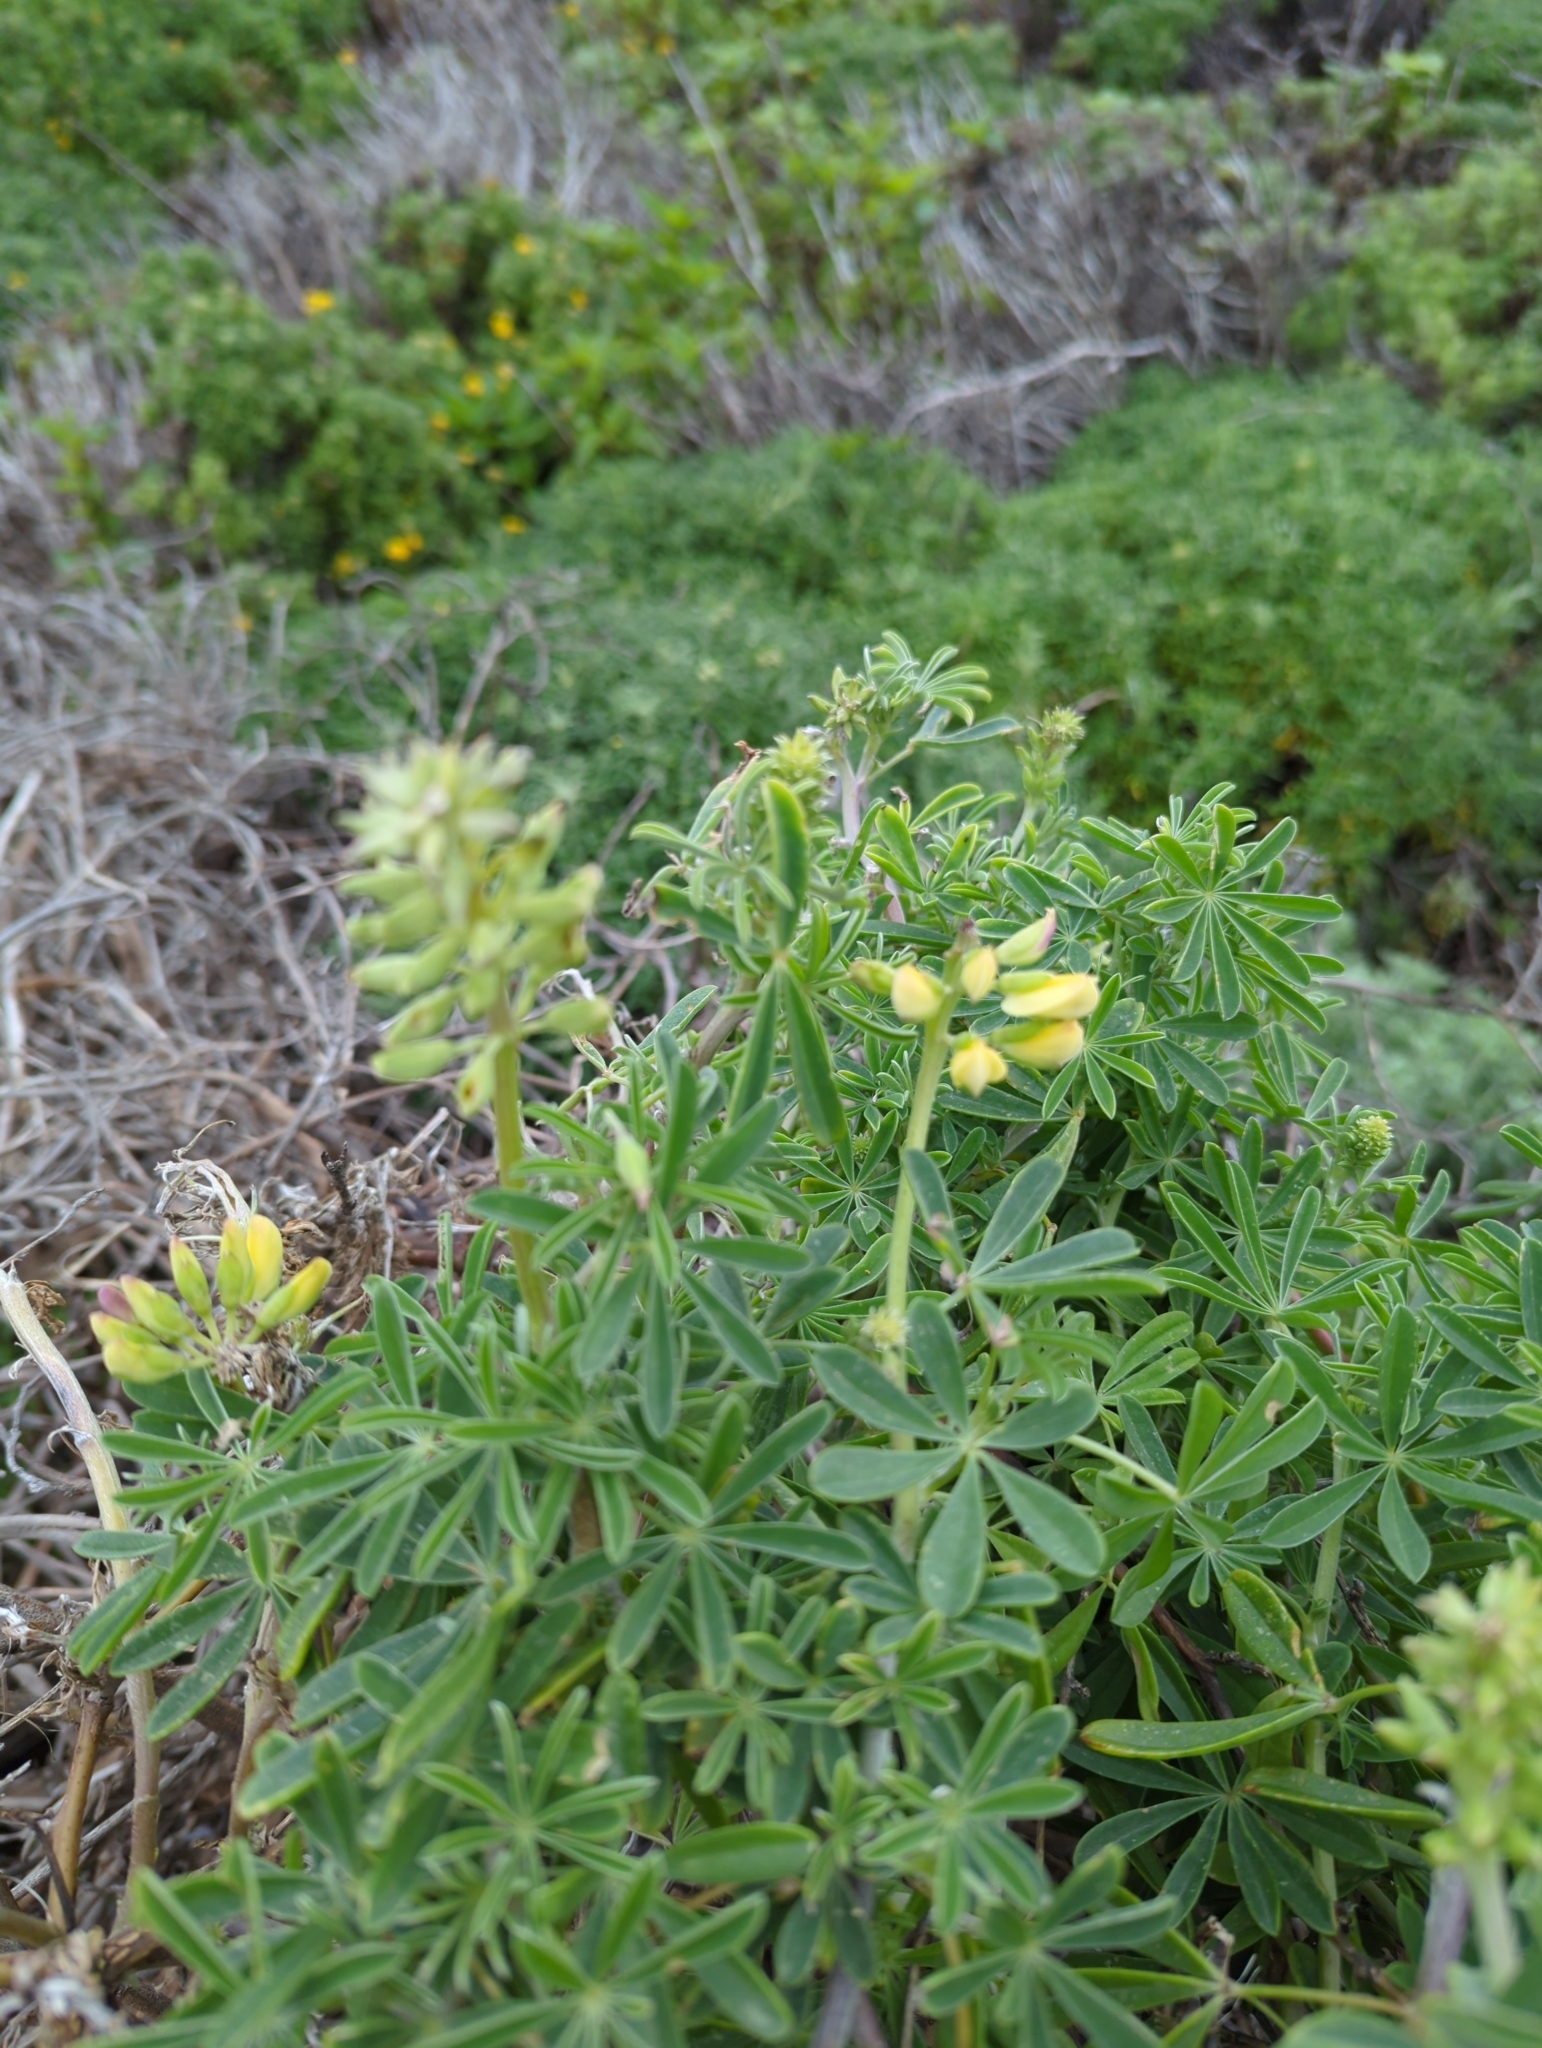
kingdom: Plantae
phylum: Tracheophyta
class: Magnoliopsida
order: Fabales
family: Fabaceae
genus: Lupinus
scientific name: Lupinus arboreus
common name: Yellow bush lupine
